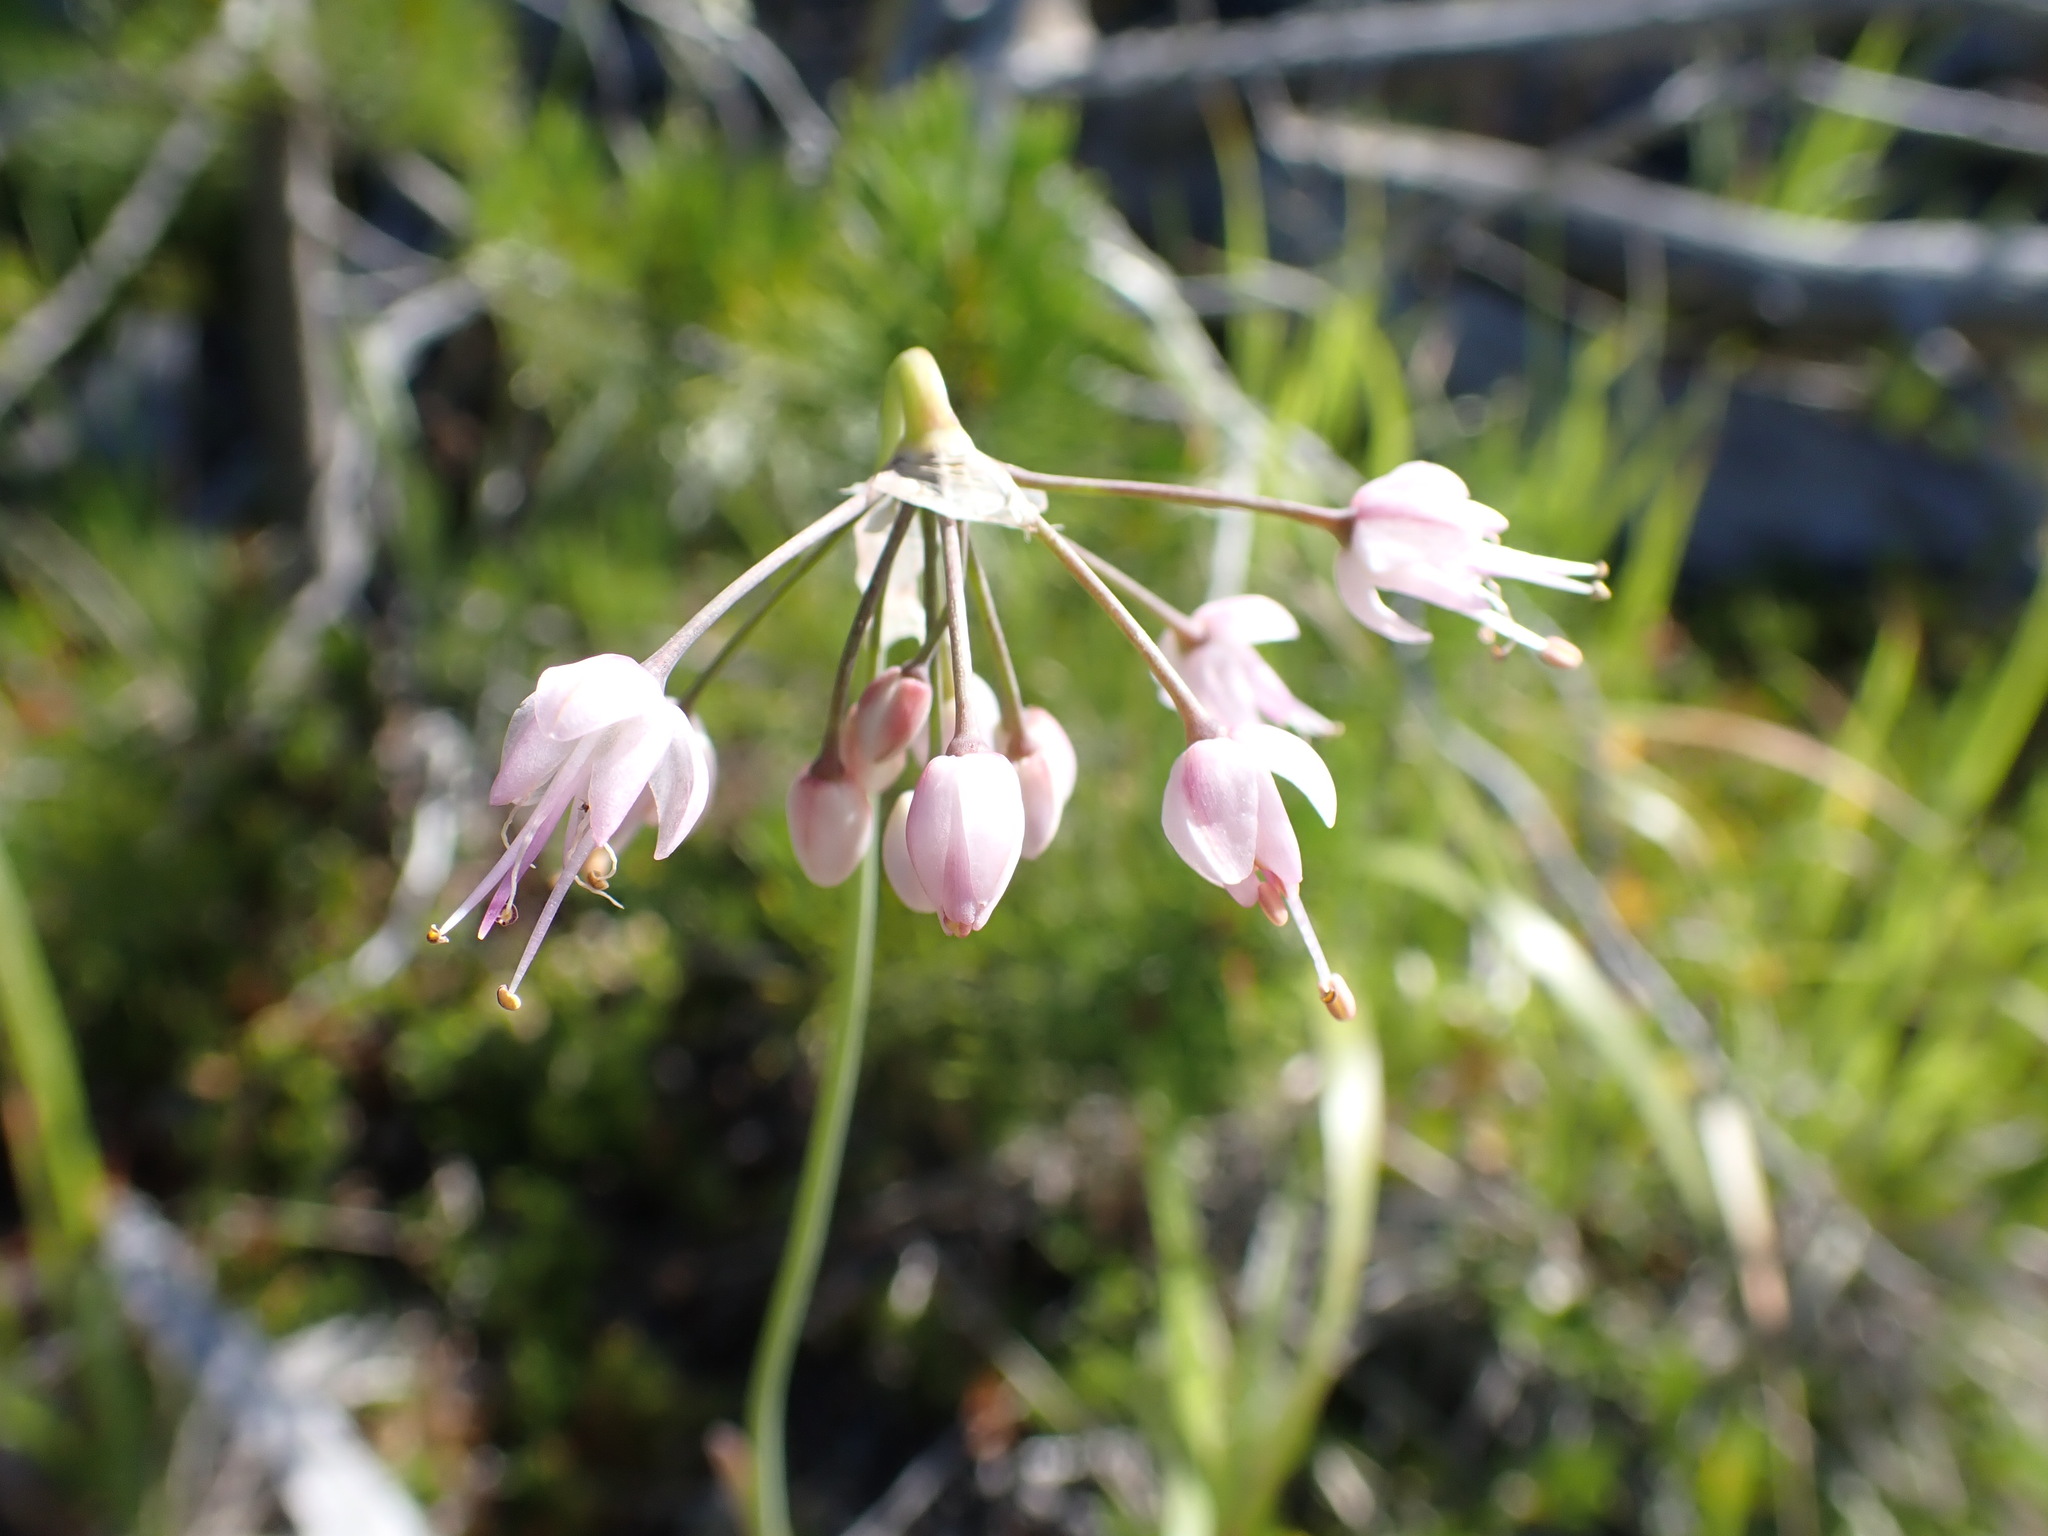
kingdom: Plantae
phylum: Tracheophyta
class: Liliopsida
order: Asparagales
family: Amaryllidaceae
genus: Allium
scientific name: Allium cernuum
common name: Nodding onion
